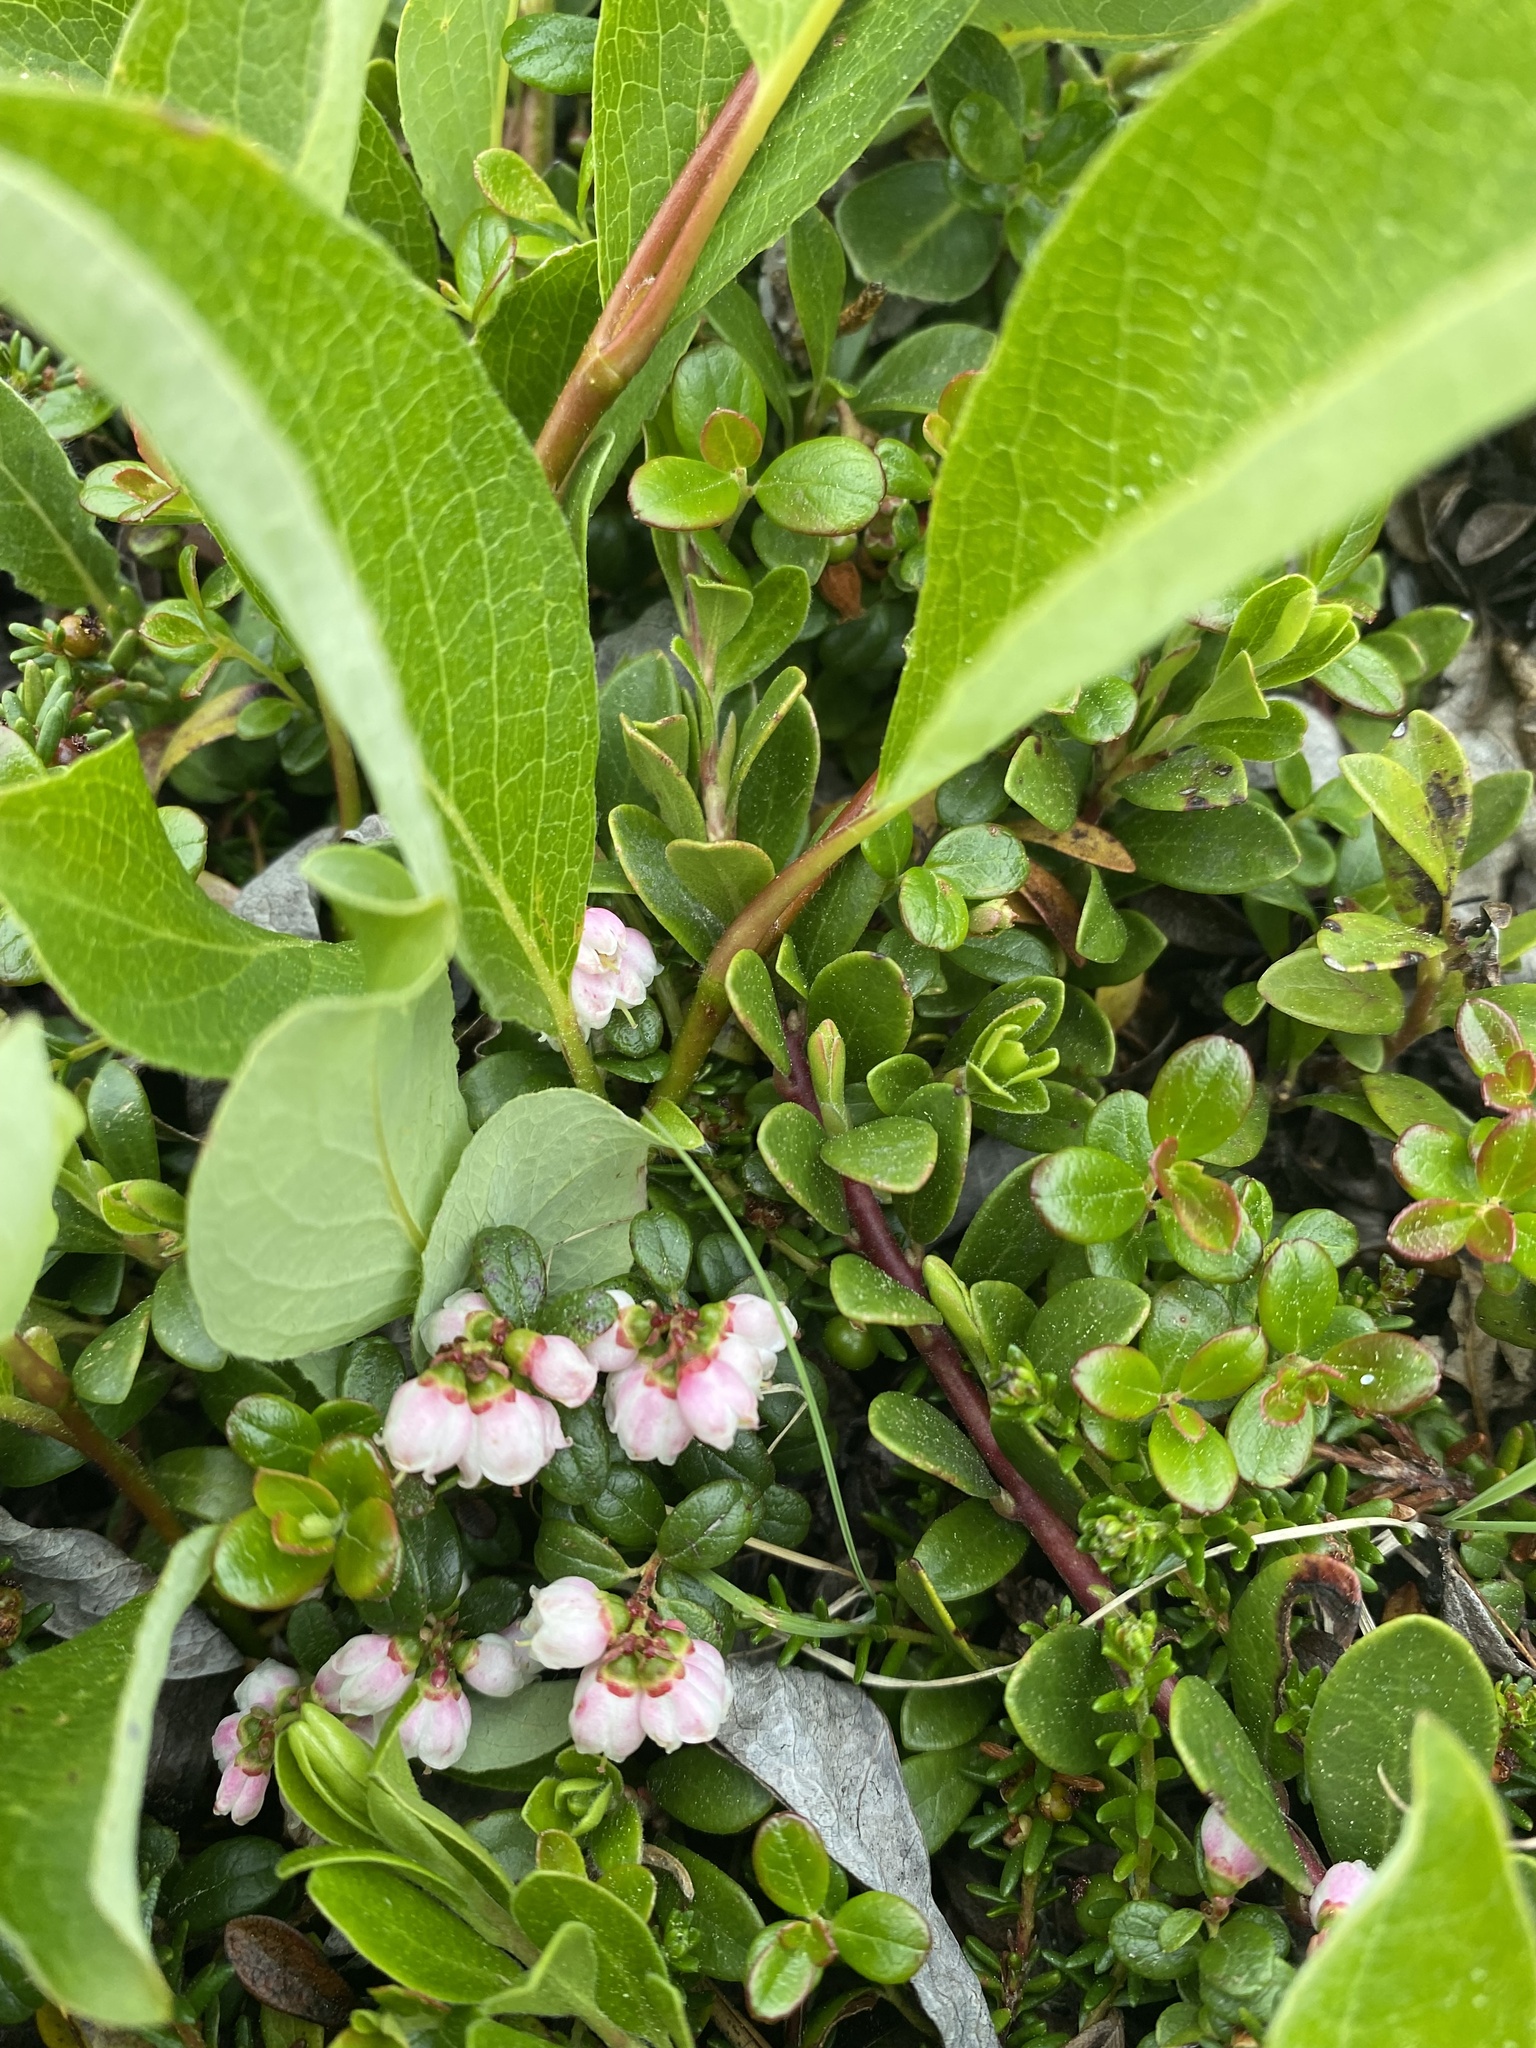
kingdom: Plantae
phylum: Tracheophyta
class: Magnoliopsida
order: Ericales
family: Ericaceae
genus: Vaccinium
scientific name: Vaccinium vitis-idaea
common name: Cowberry
